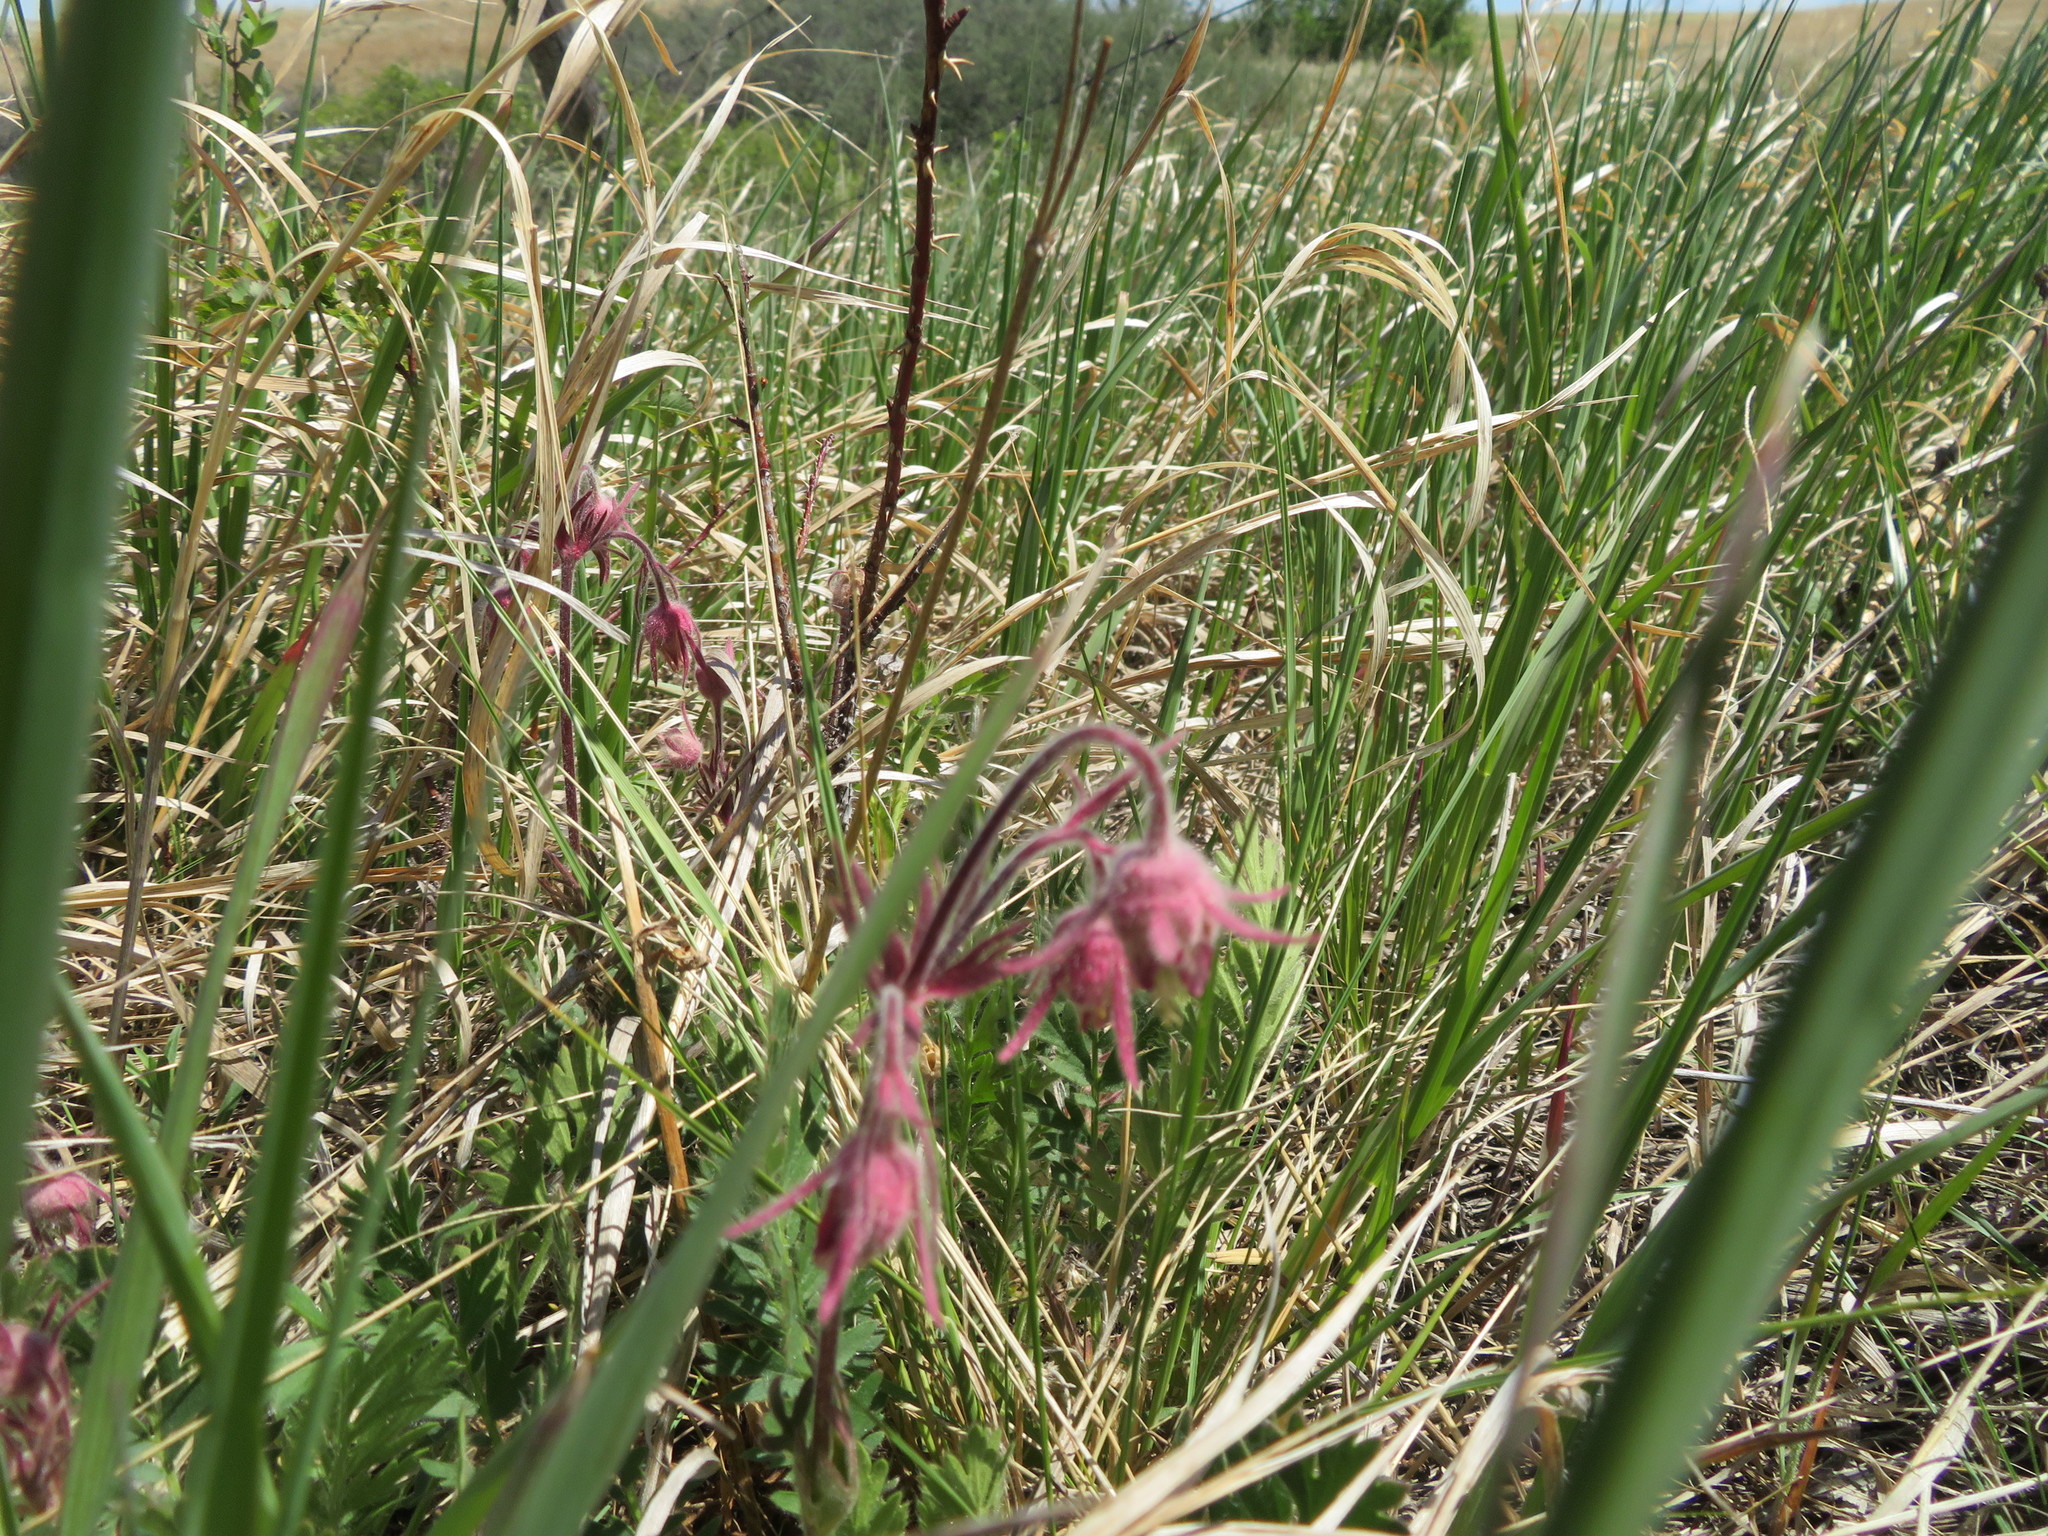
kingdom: Plantae
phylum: Tracheophyta
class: Magnoliopsida
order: Rosales
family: Rosaceae
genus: Geum
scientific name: Geum triflorum
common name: Old man's whiskers
